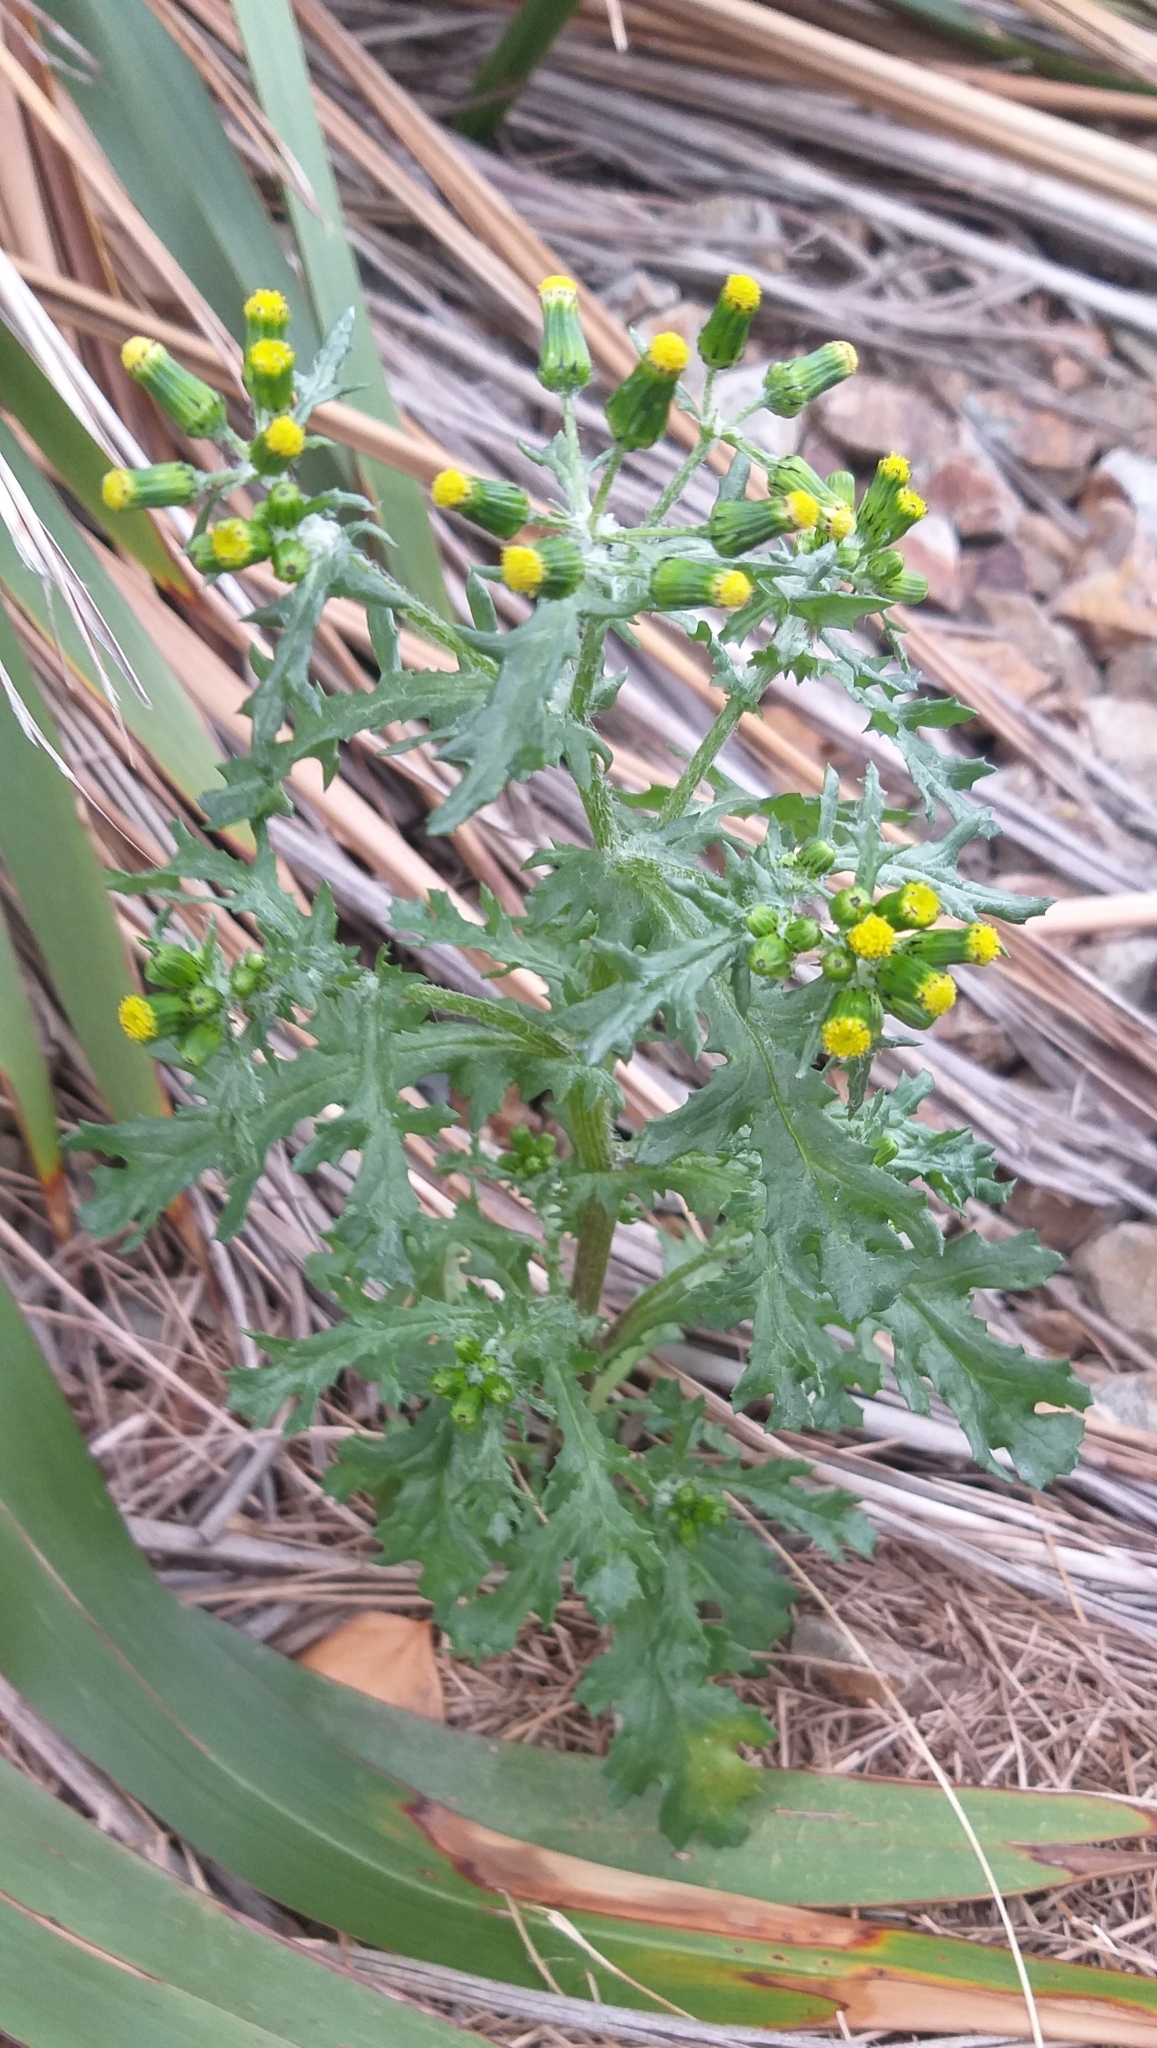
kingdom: Plantae
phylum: Tracheophyta
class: Magnoliopsida
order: Asterales
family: Asteraceae
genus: Senecio
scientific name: Senecio vulgaris
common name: Old-man-in-the-spring
